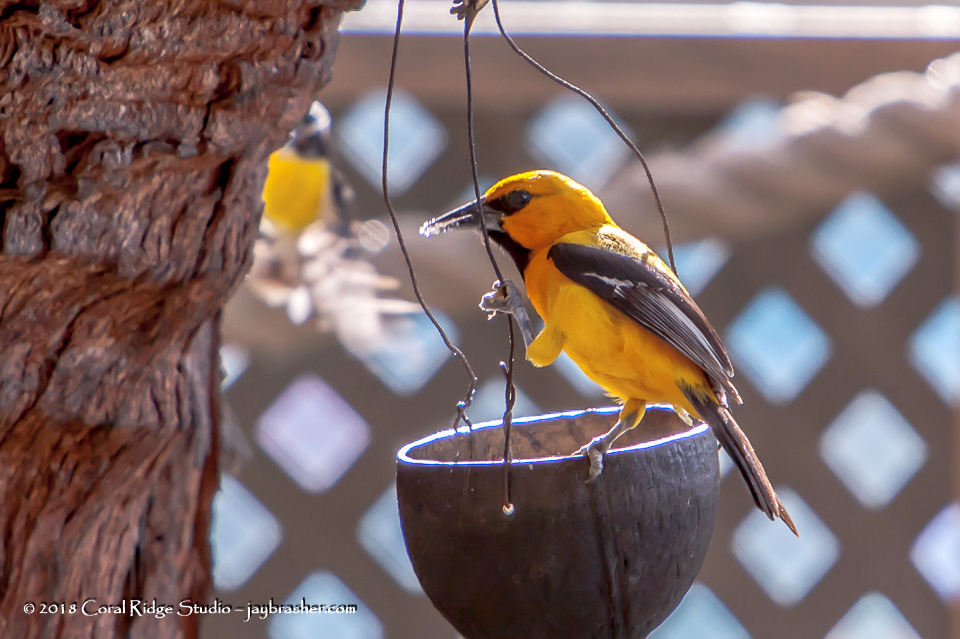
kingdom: Animalia
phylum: Chordata
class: Aves
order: Passeriformes
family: Icteridae
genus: Icterus
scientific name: Icterus nigrogularis
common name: Yellow oriole
